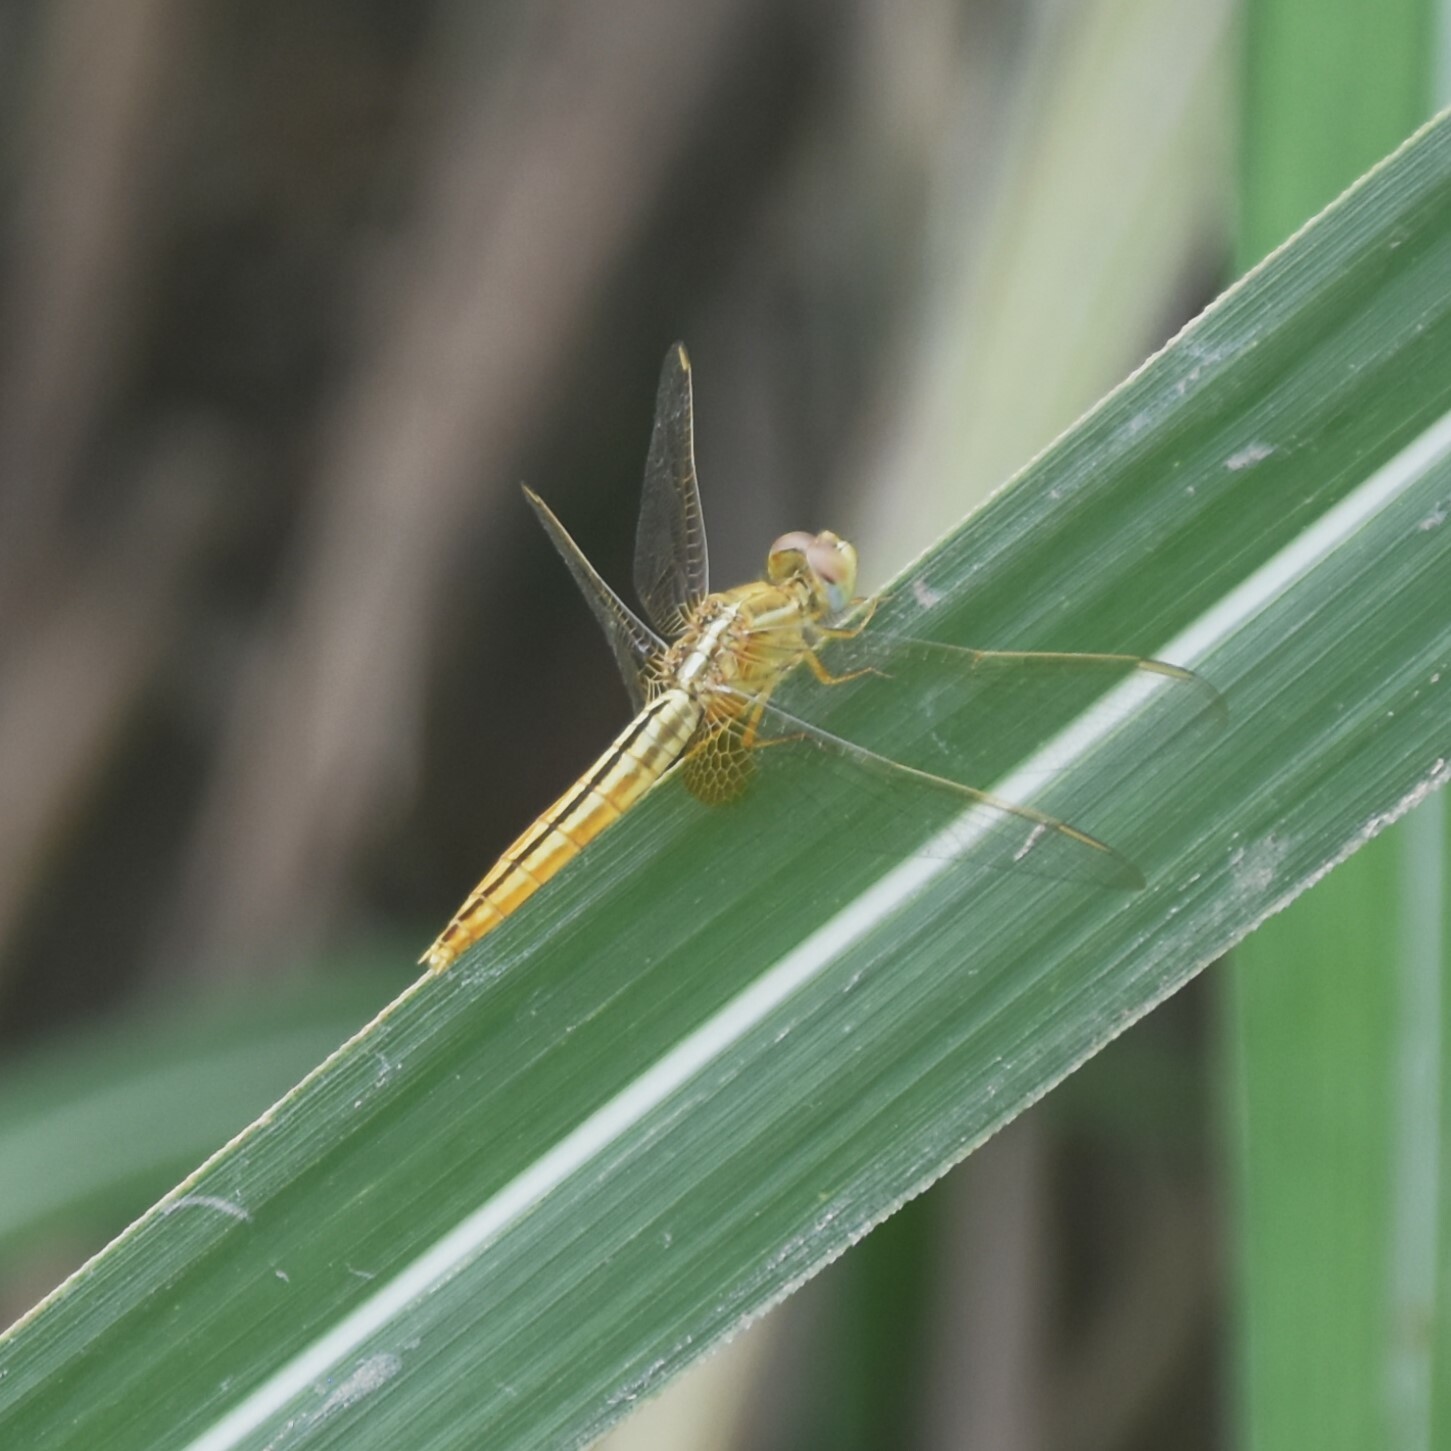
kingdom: Animalia
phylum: Arthropoda
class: Insecta
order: Odonata
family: Libellulidae
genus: Crocothemis
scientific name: Crocothemis servilia
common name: Scarlet skimmer
